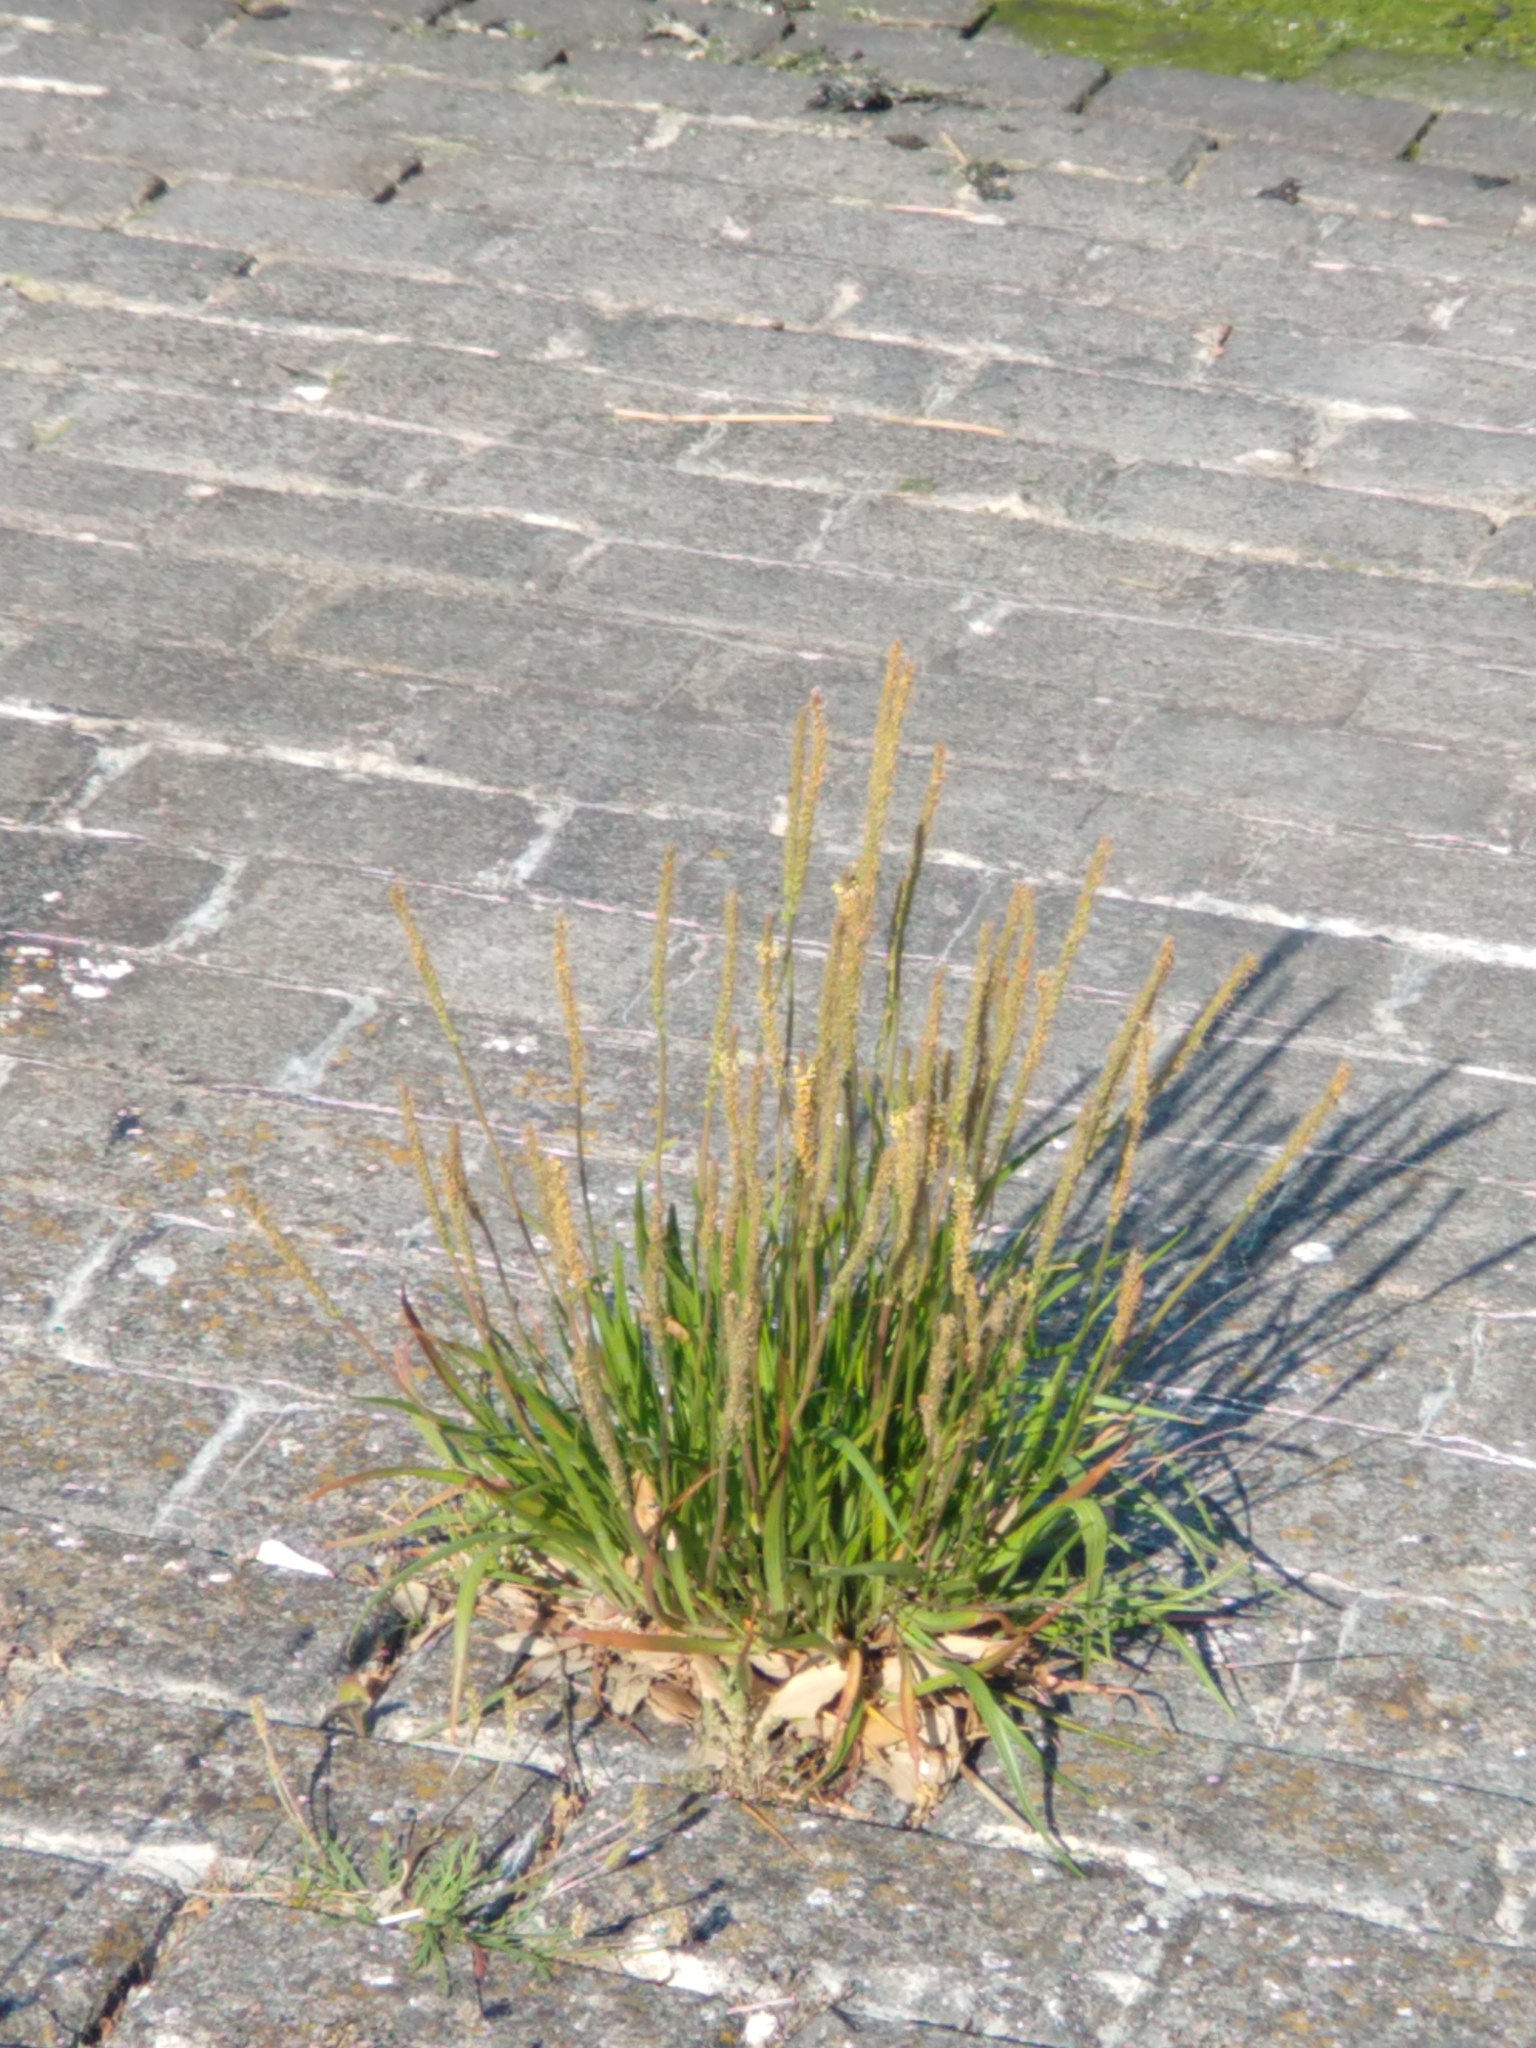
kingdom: Plantae
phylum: Tracheophyta
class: Magnoliopsida
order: Lamiales
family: Plantaginaceae
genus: Plantago
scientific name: Plantago maritima
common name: Sea plantain
